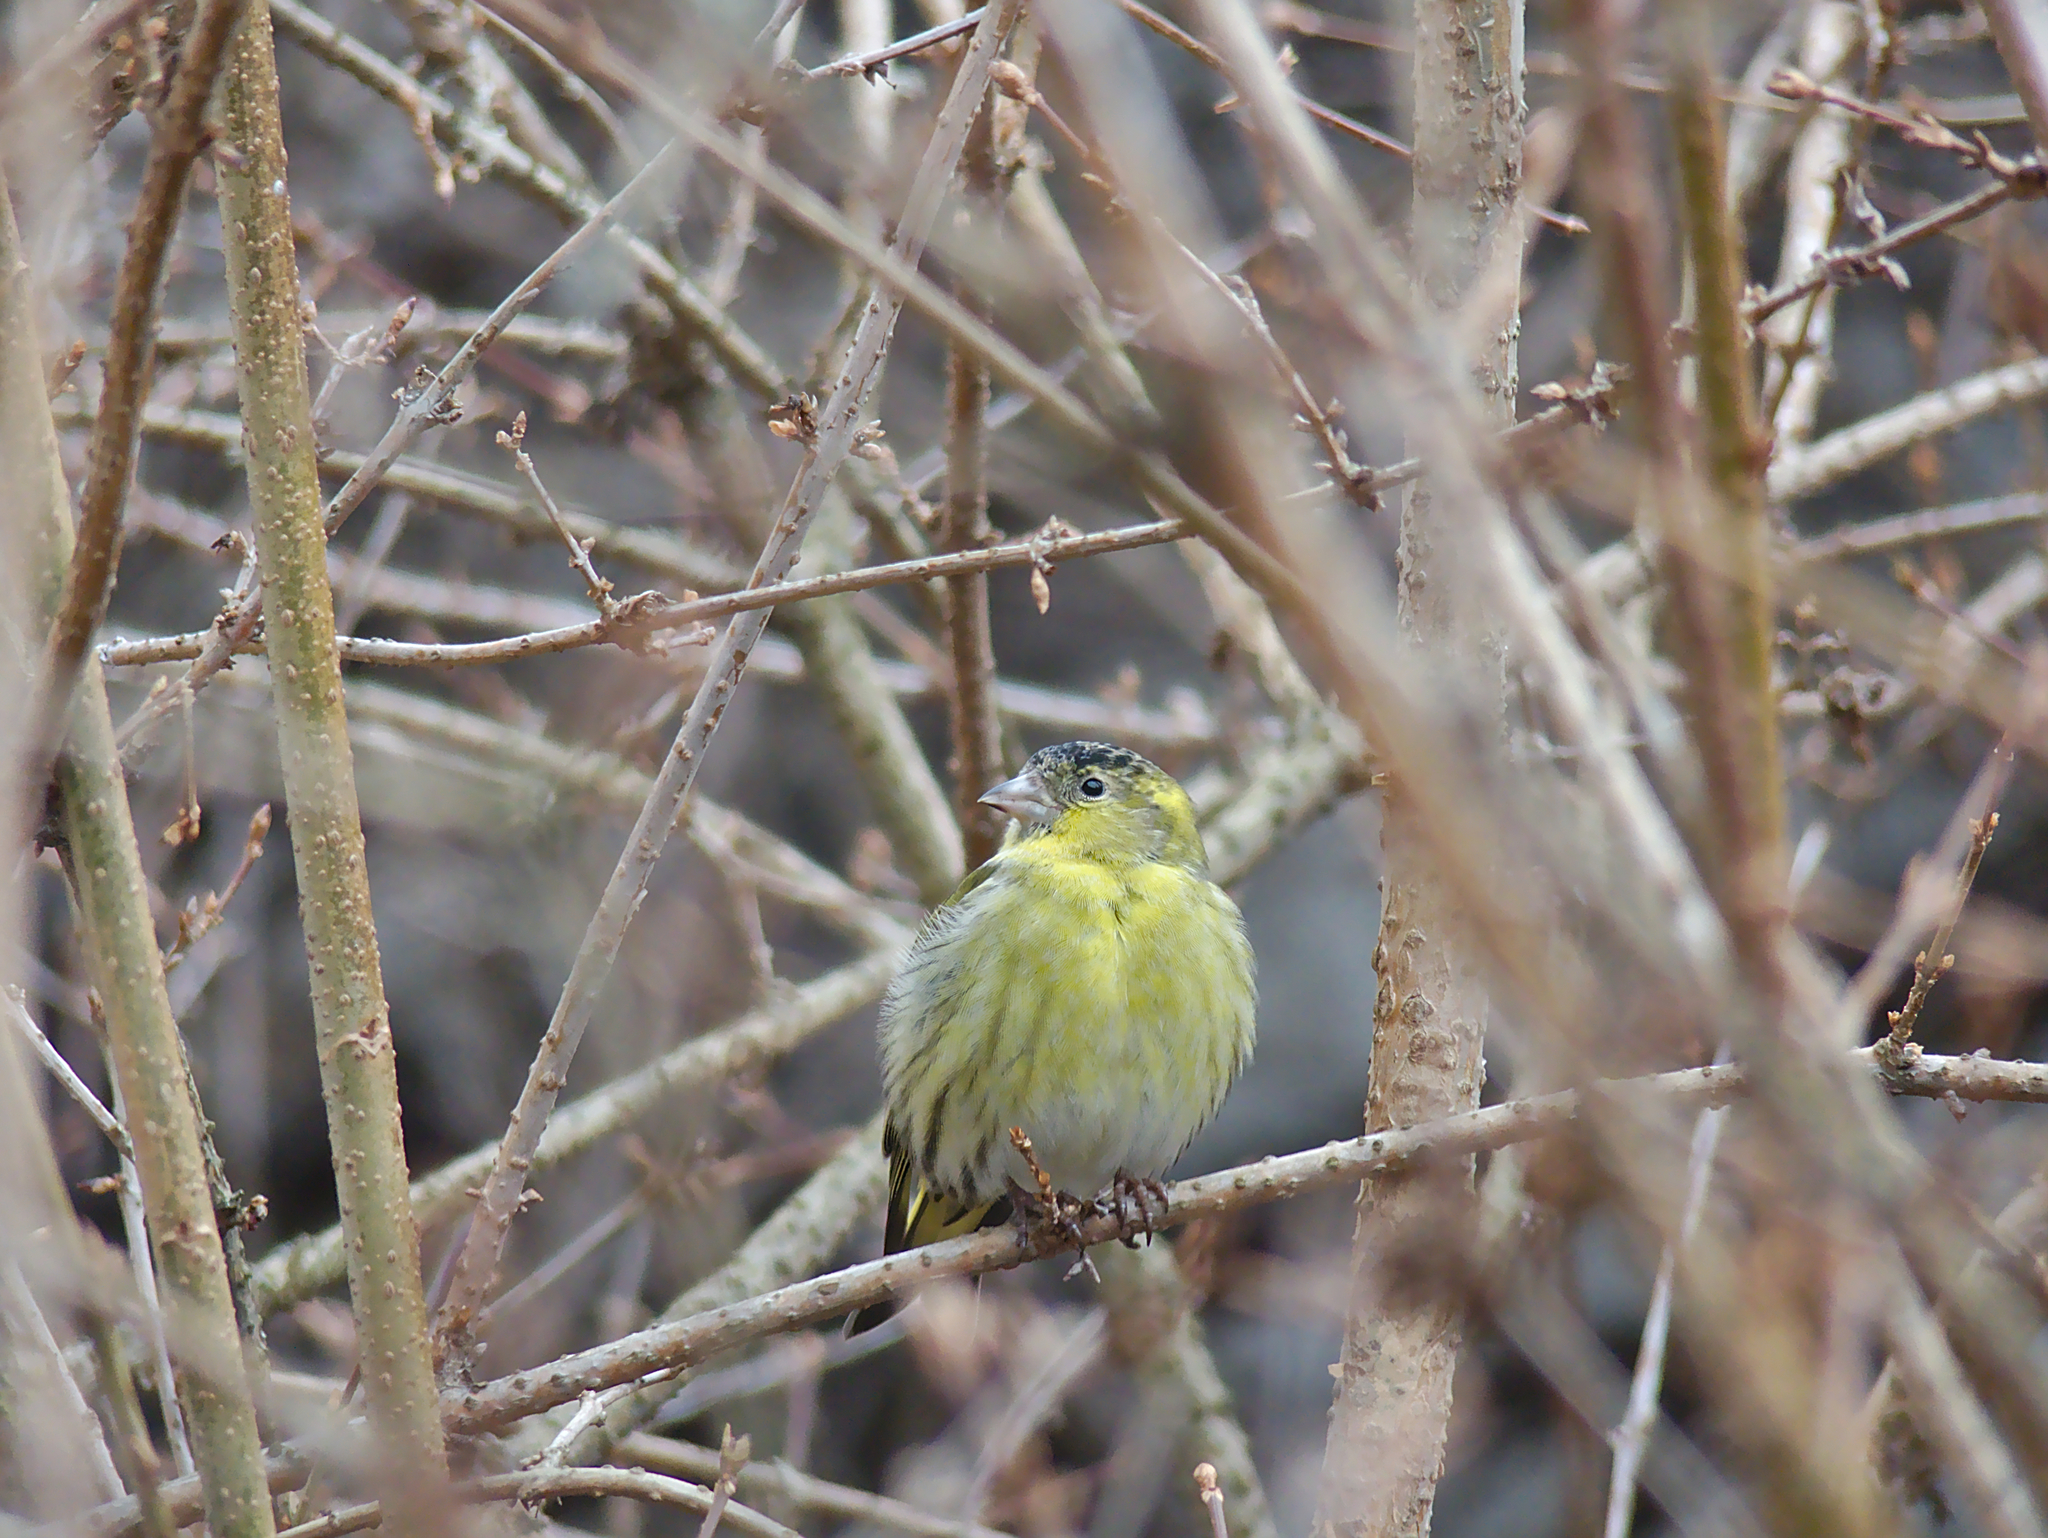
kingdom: Animalia
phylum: Chordata
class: Aves
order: Passeriformes
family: Fringillidae
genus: Spinus
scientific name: Spinus spinus
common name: Eurasian siskin
